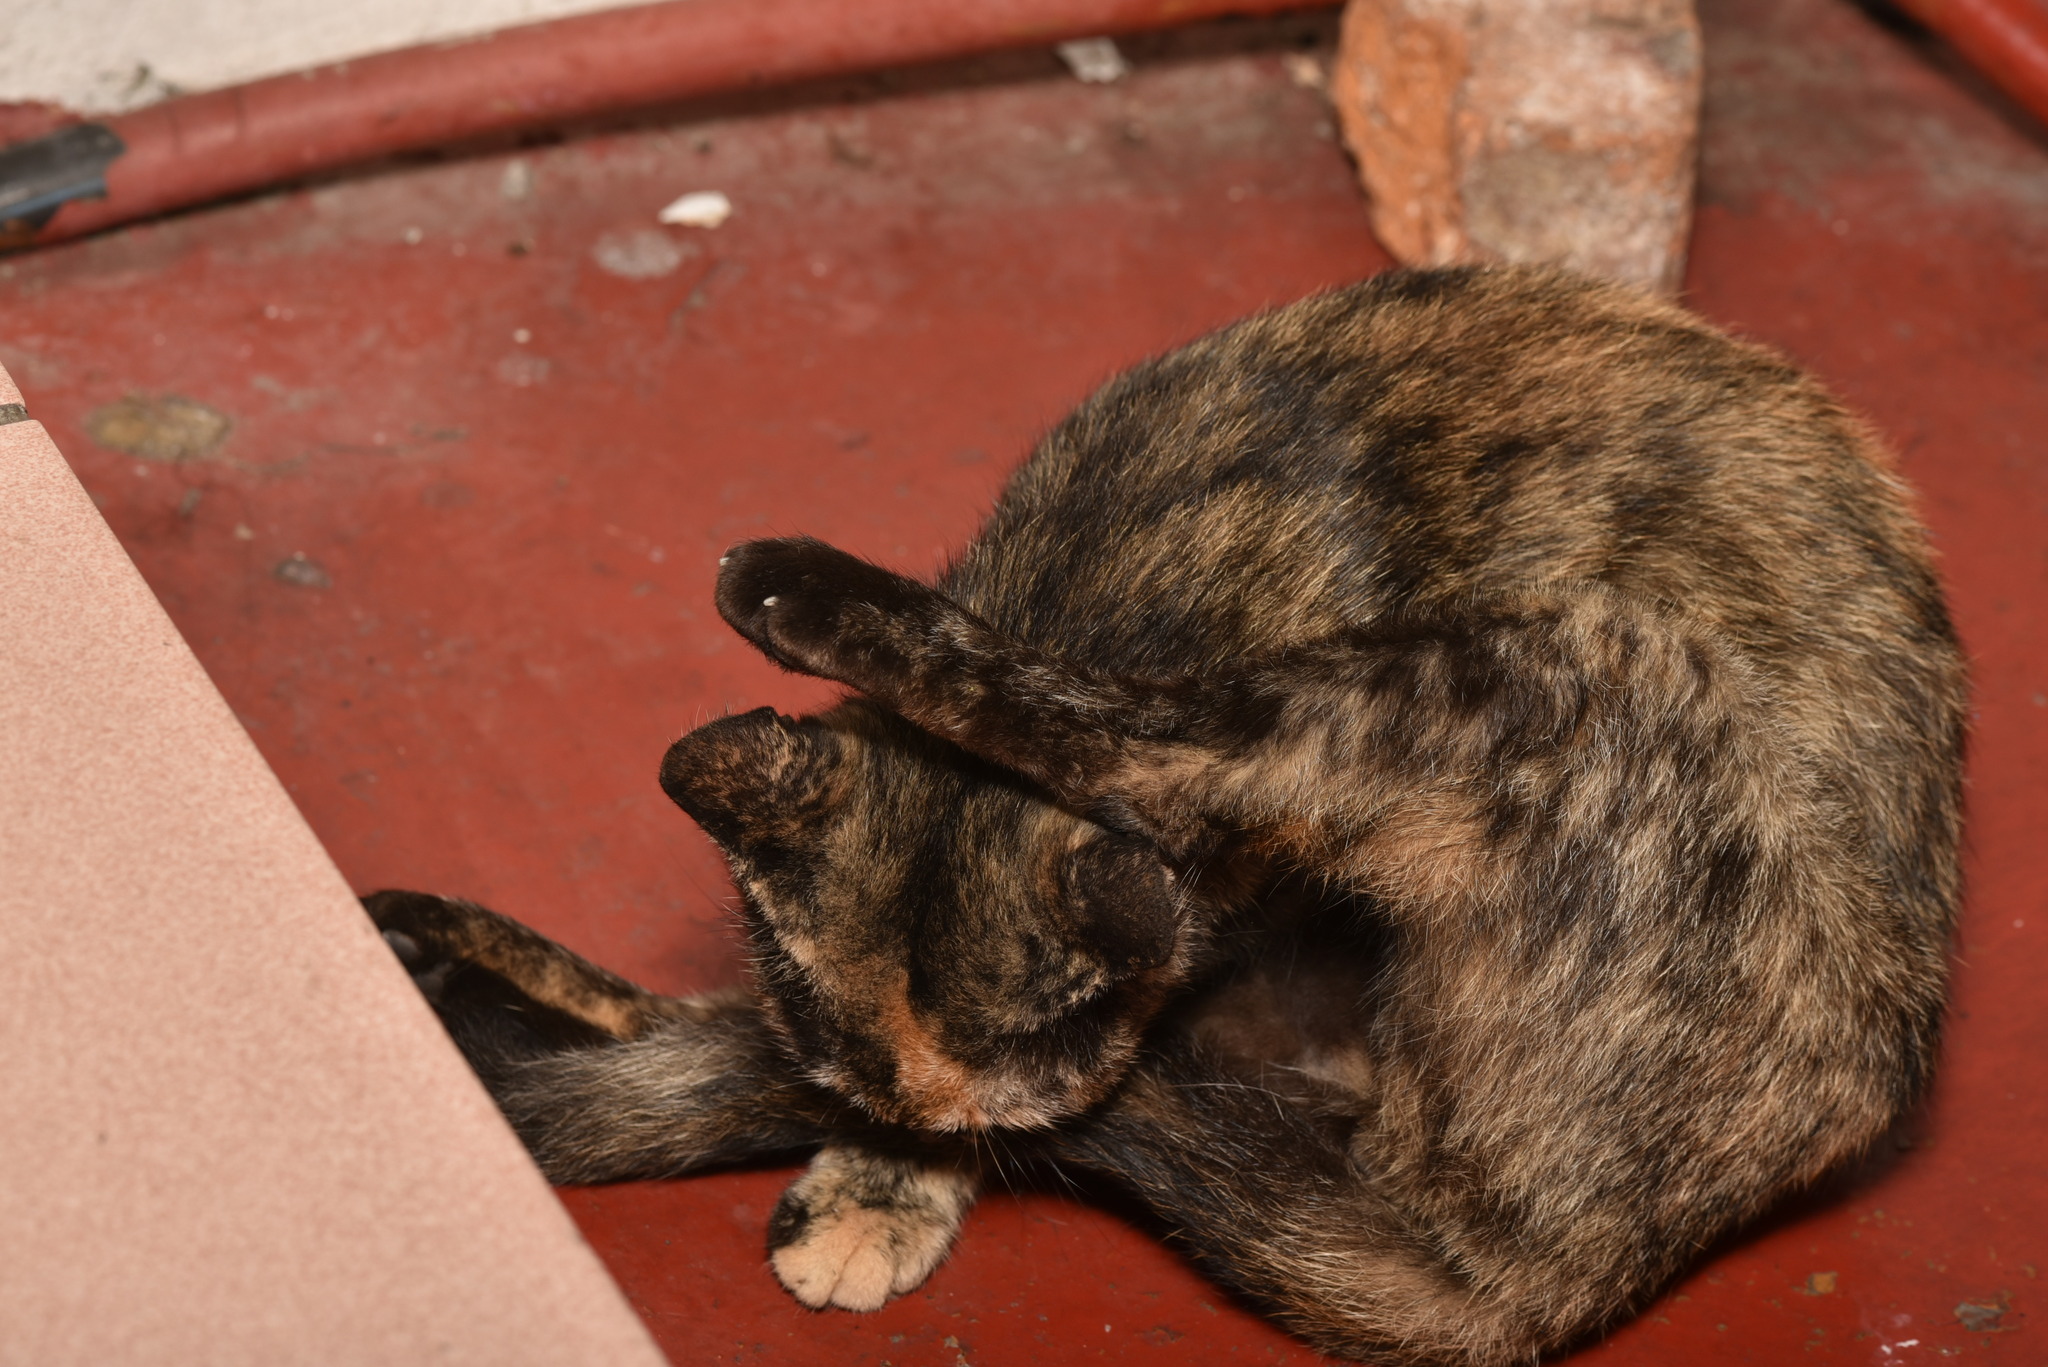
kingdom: Animalia
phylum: Chordata
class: Mammalia
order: Carnivora
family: Felidae
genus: Felis
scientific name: Felis catus
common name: Domestic cat
